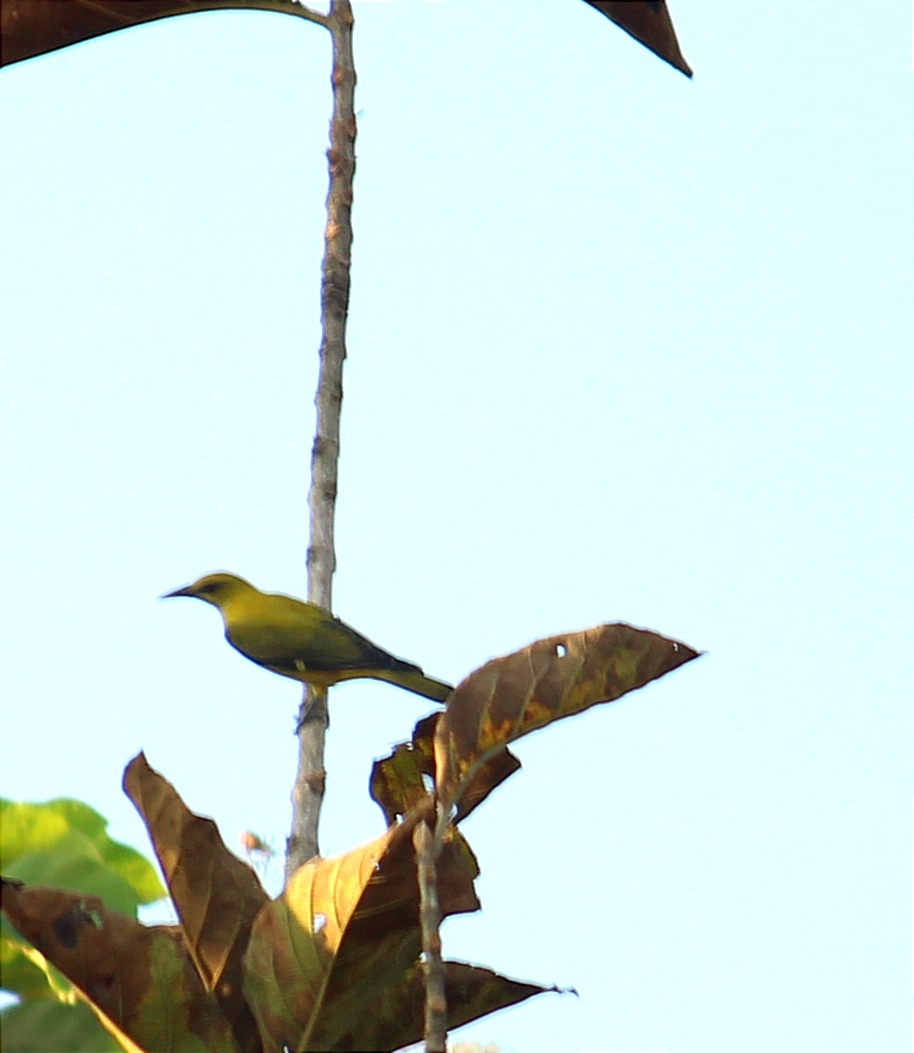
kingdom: Animalia
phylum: Chordata
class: Aves
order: Passeriformes
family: Oriolidae
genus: Oriolus
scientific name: Oriolus kundoo
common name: Indian golden oriole
